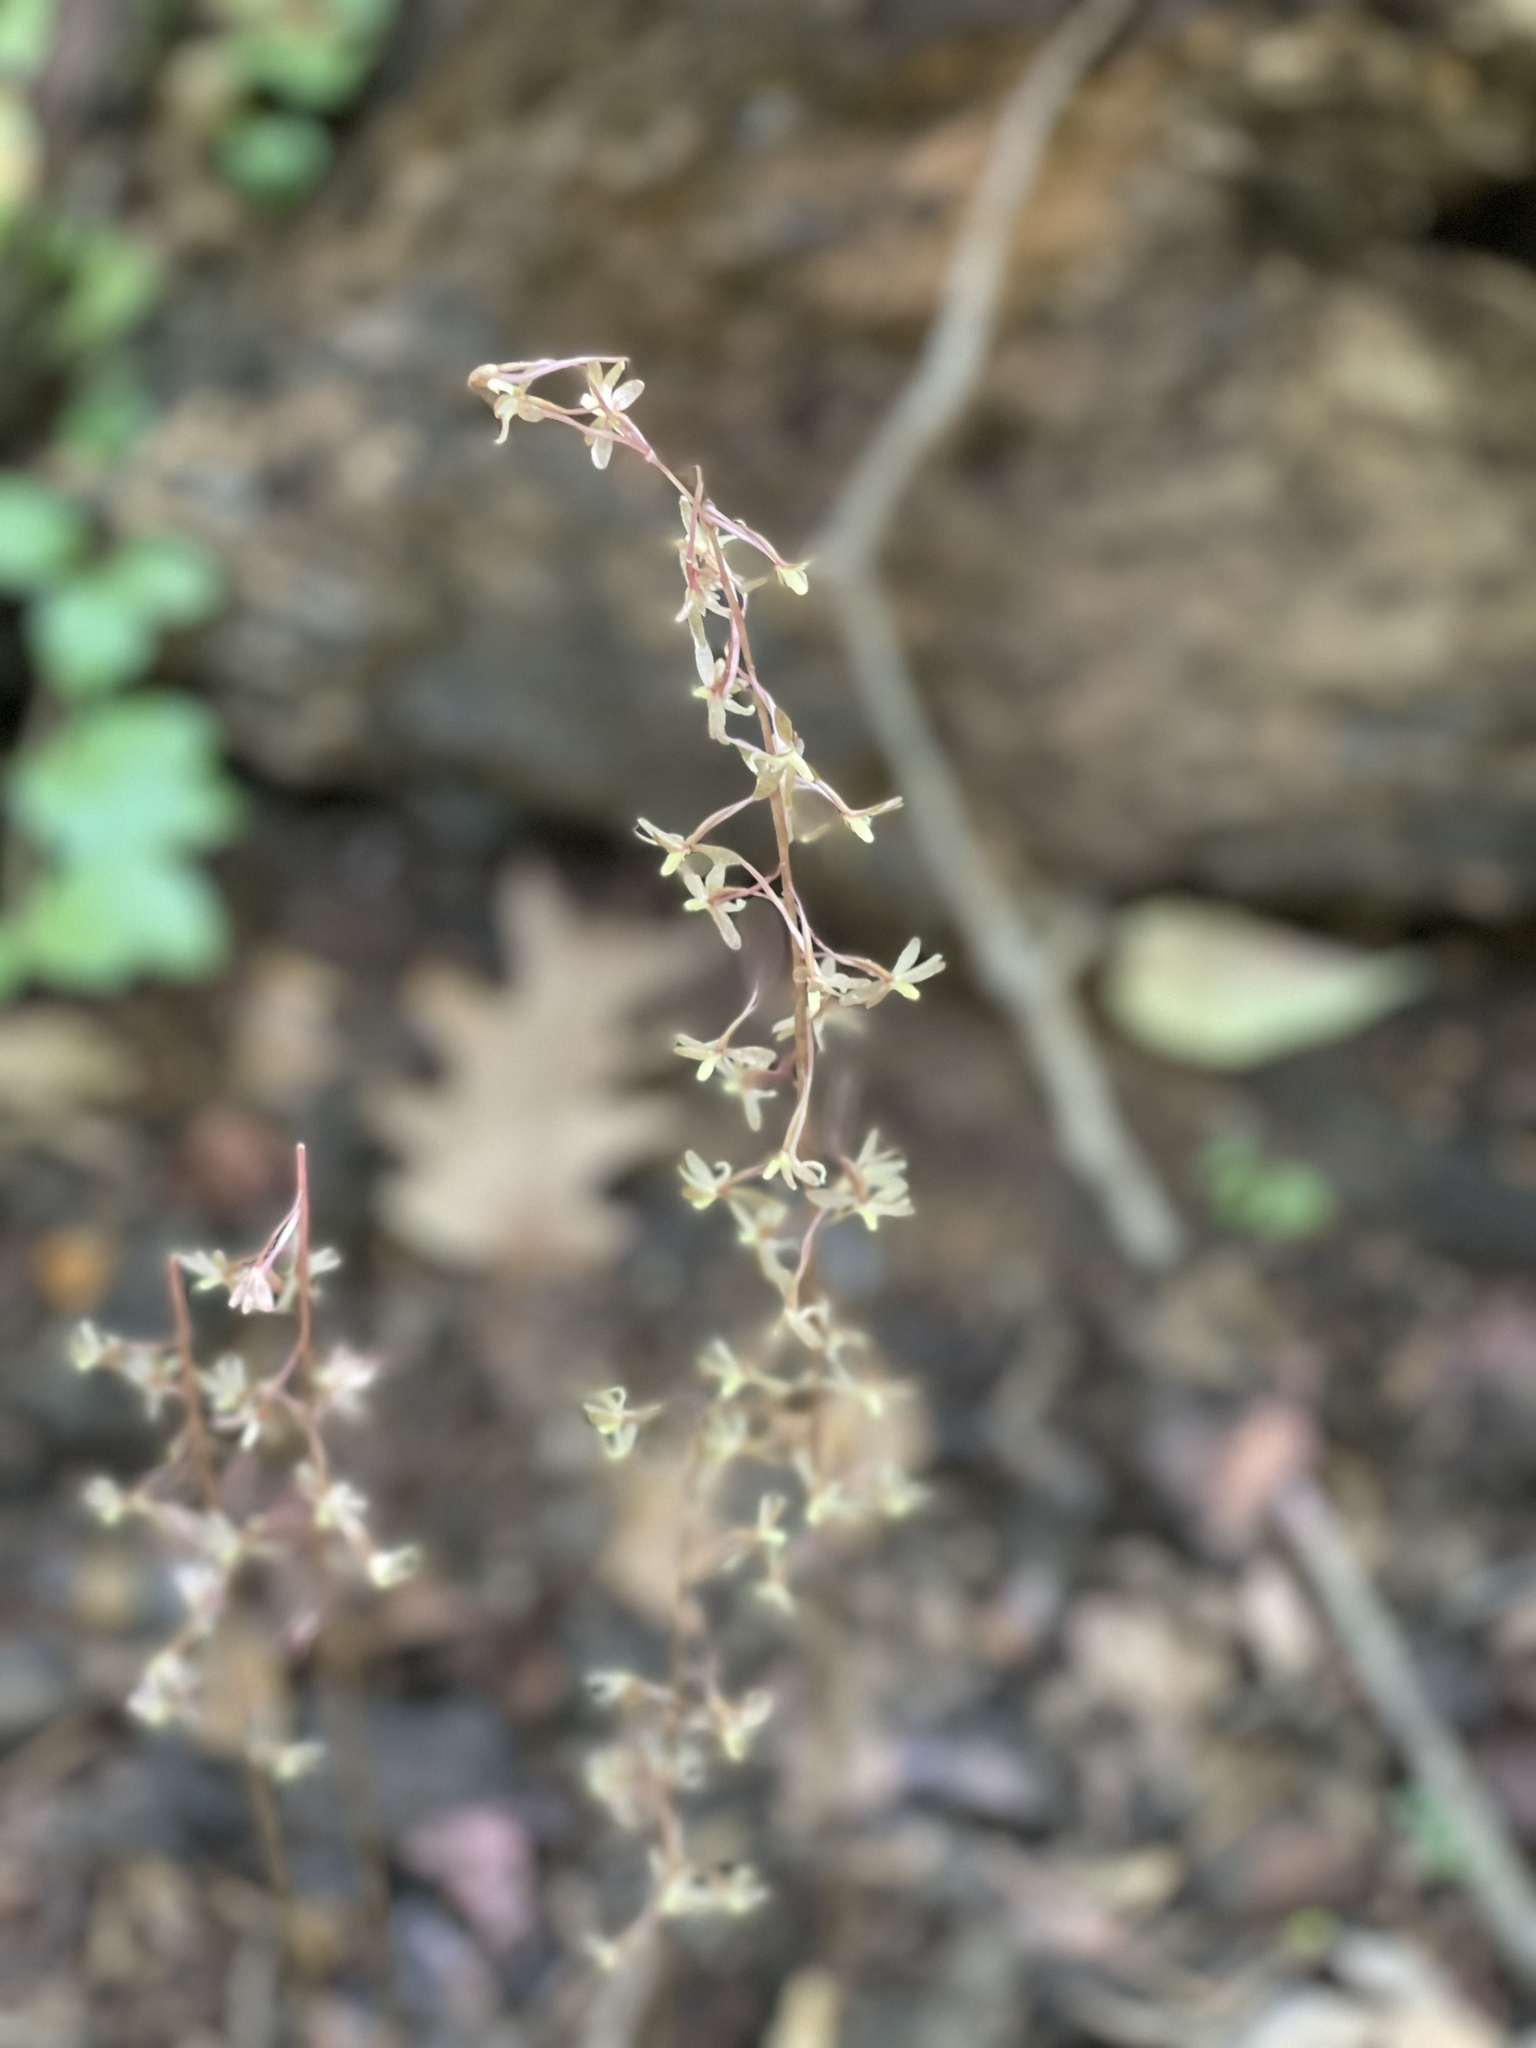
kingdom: Plantae
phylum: Tracheophyta
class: Liliopsida
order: Asparagales
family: Orchidaceae
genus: Tipularia
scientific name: Tipularia discolor
